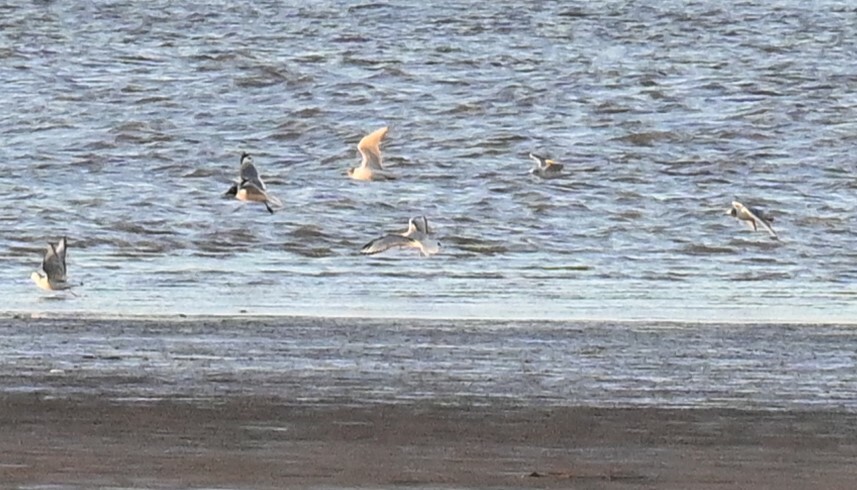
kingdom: Animalia
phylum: Chordata
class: Aves
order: Charadriiformes
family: Laridae
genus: Leucophaeus
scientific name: Leucophaeus pipixcan
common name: Franklin's gull
